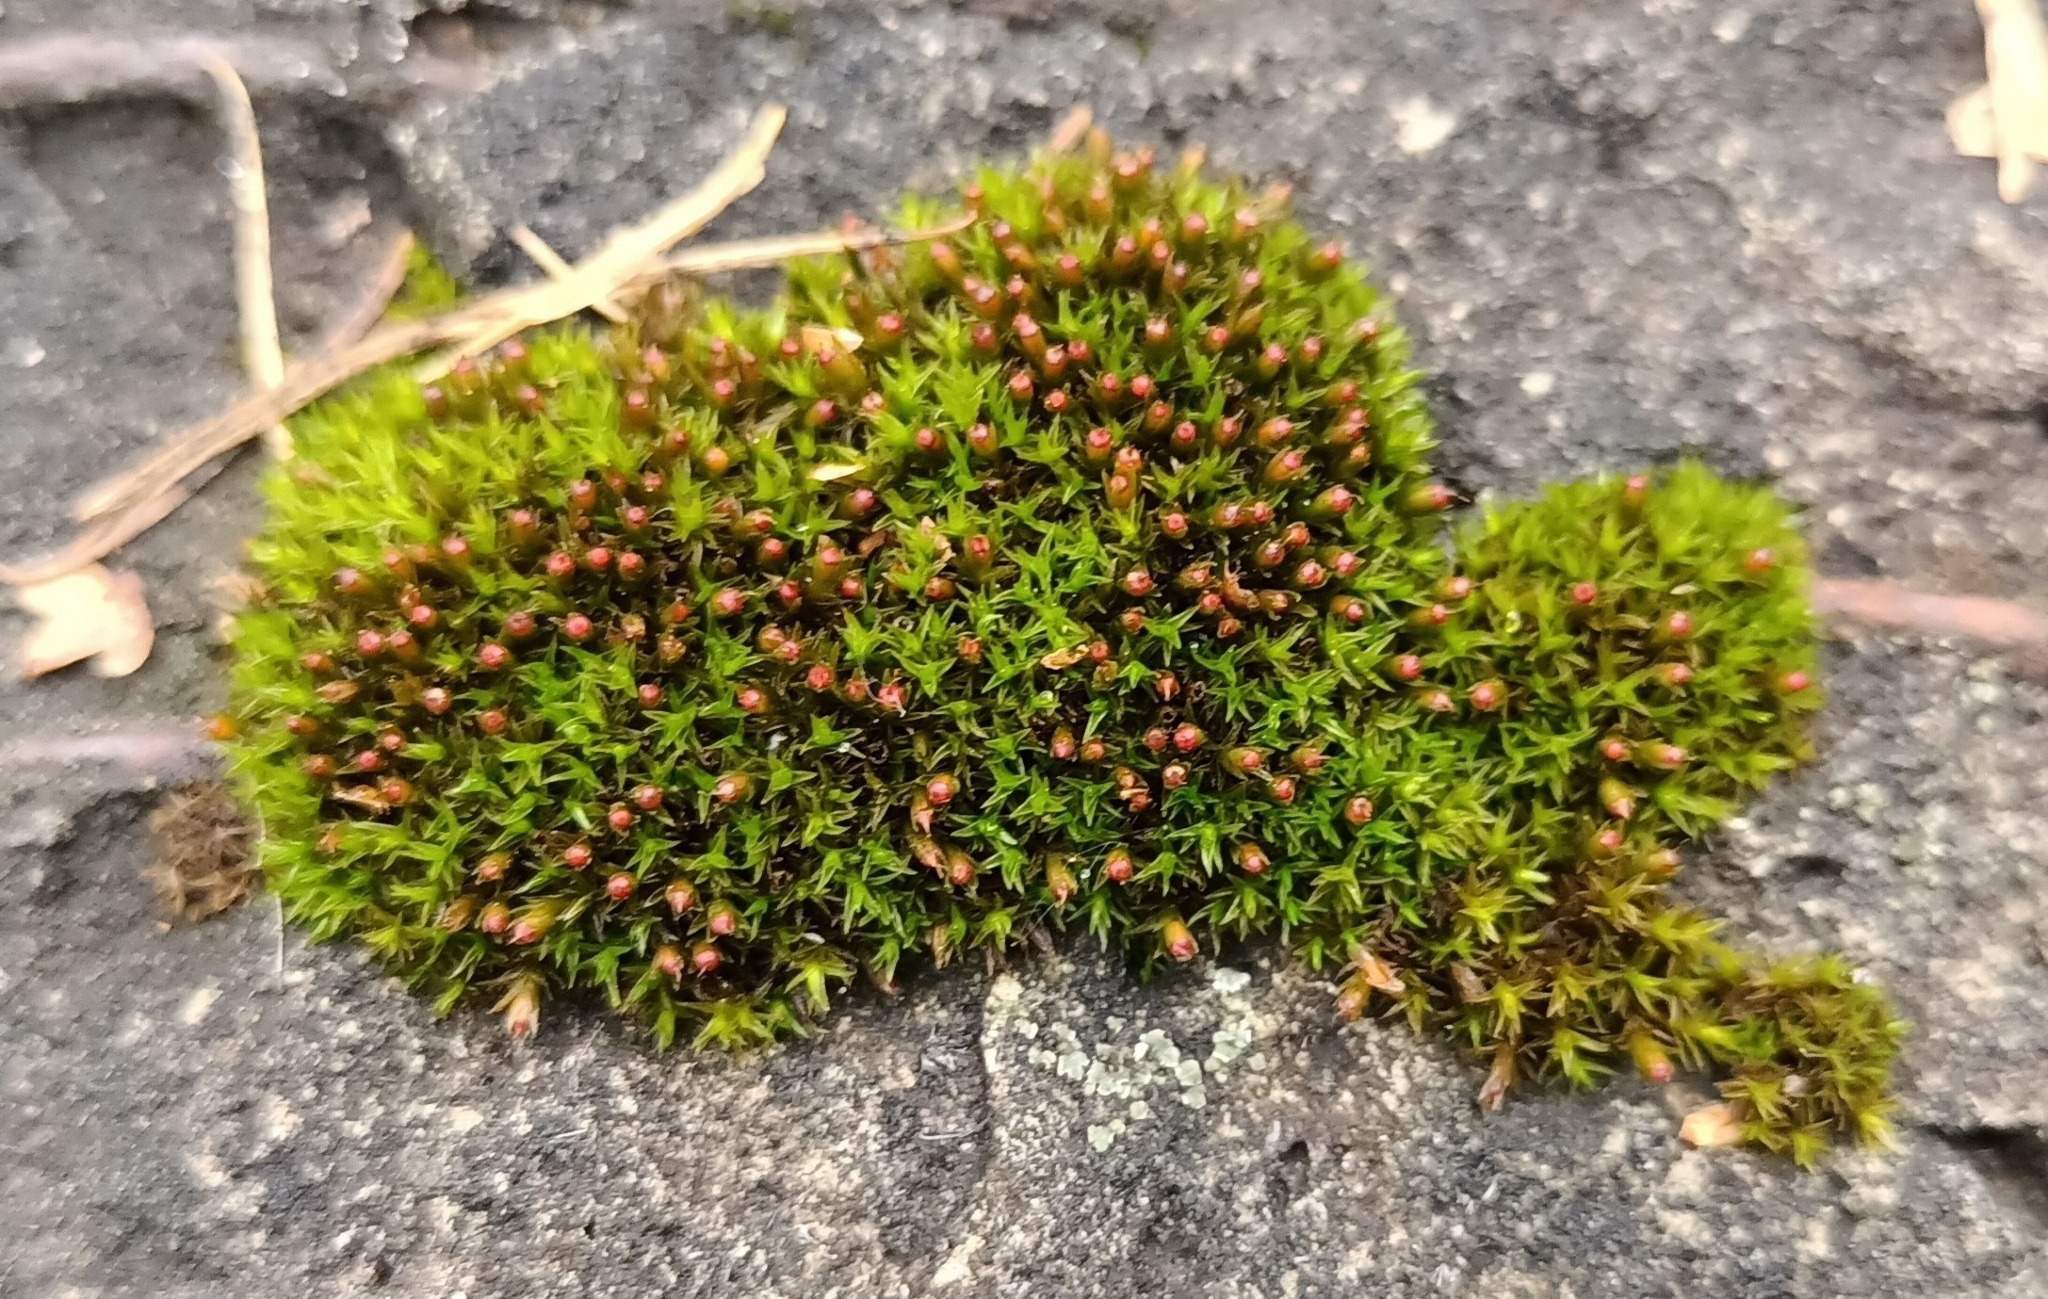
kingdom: Plantae
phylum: Bryophyta
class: Bryopsida
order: Grimmiales
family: Grimmiaceae
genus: Schistidium
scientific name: Schistidium submuticum
